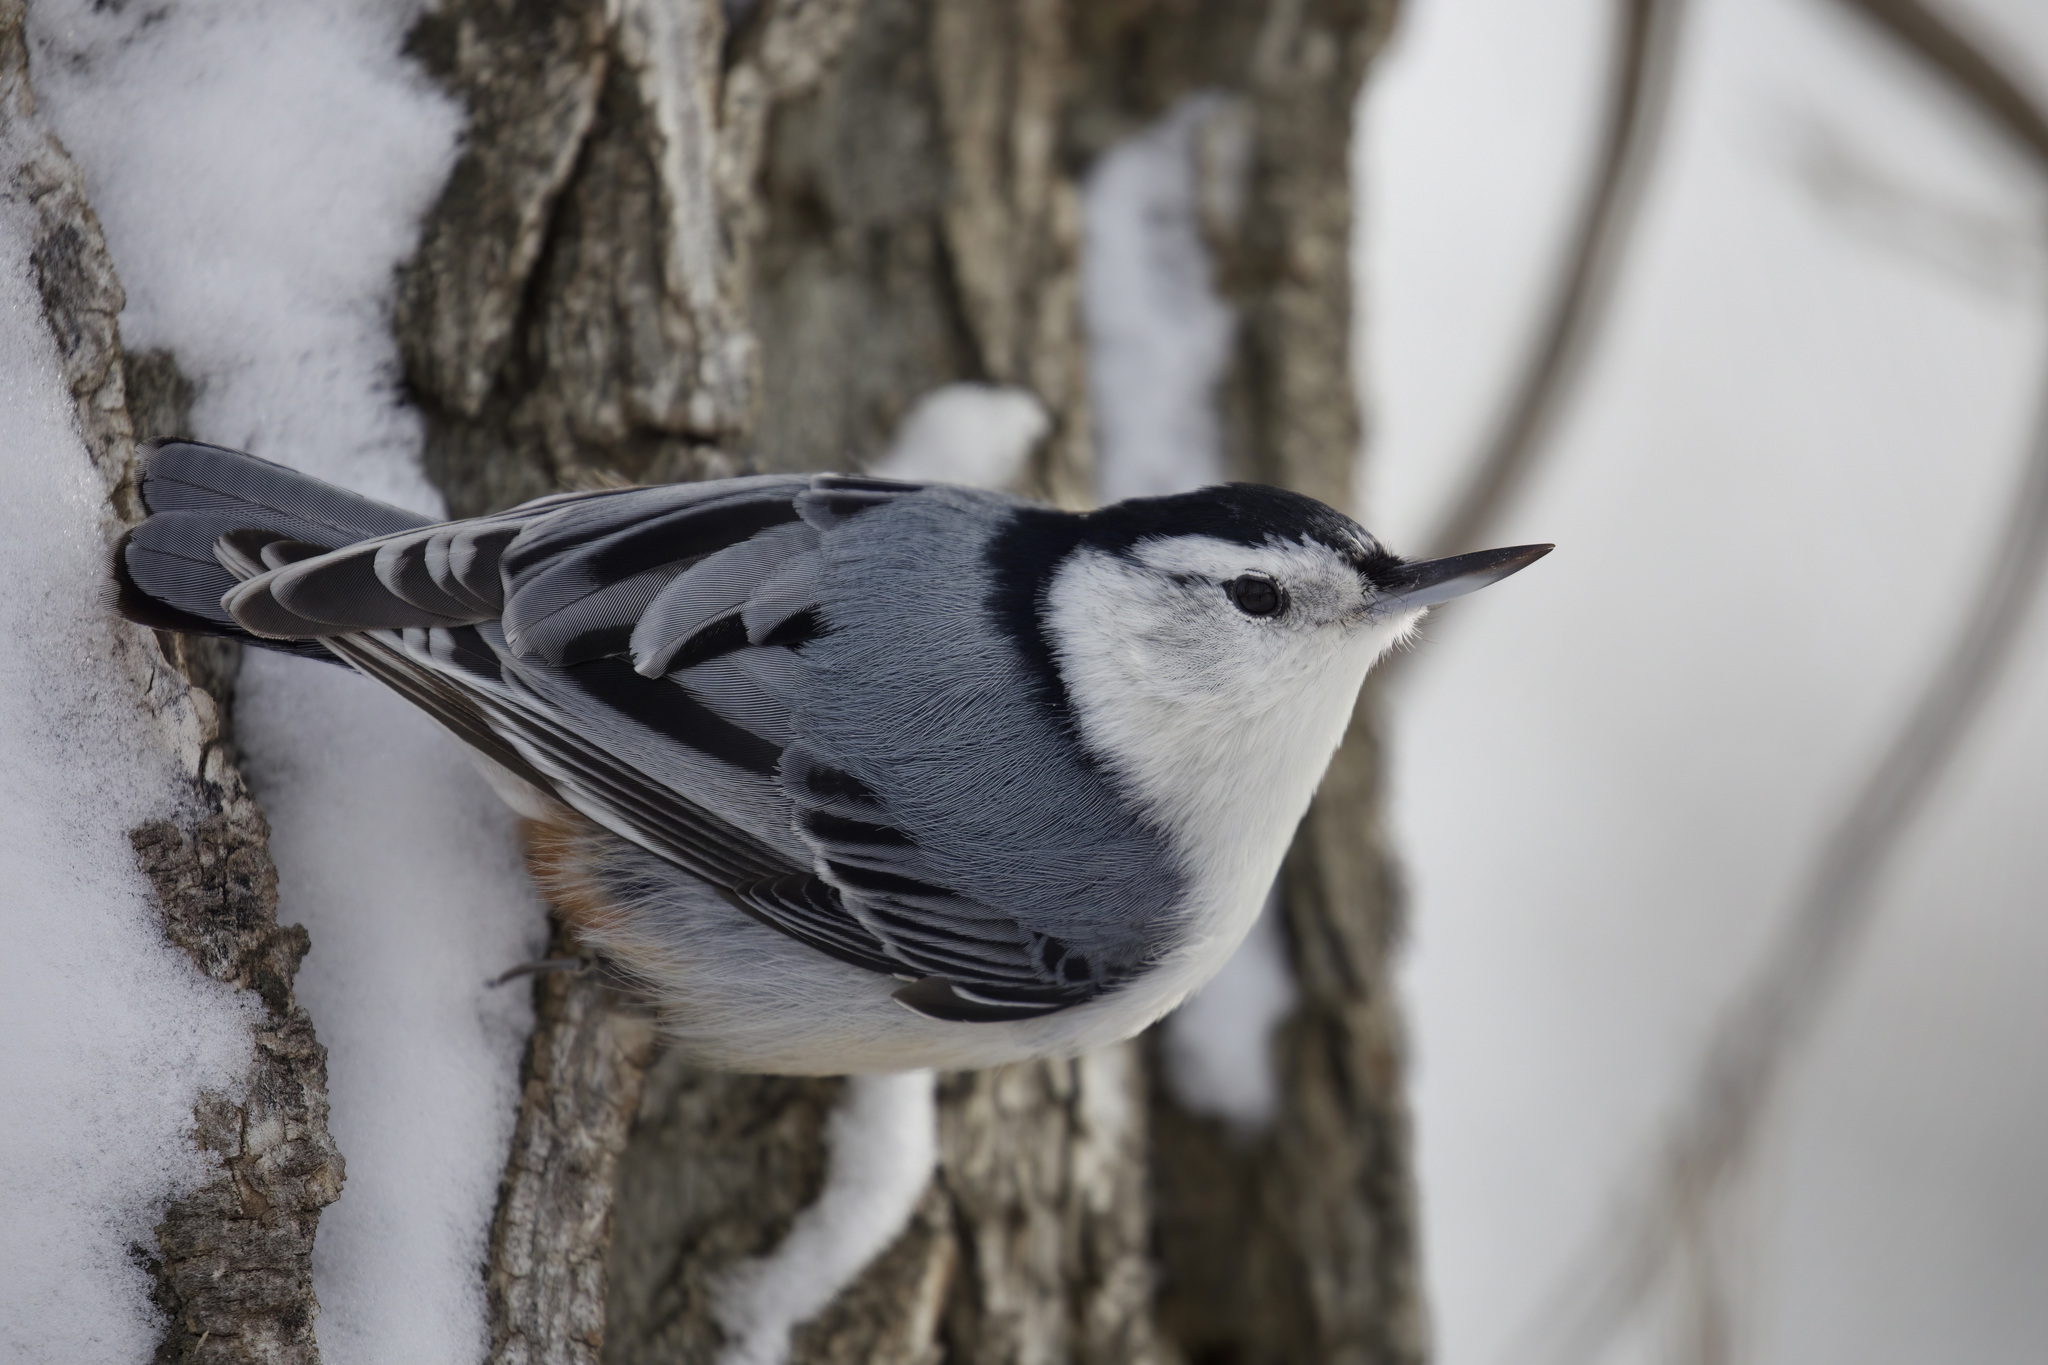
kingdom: Animalia
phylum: Chordata
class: Aves
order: Passeriformes
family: Sittidae
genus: Sitta
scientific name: Sitta carolinensis
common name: White-breasted nuthatch
